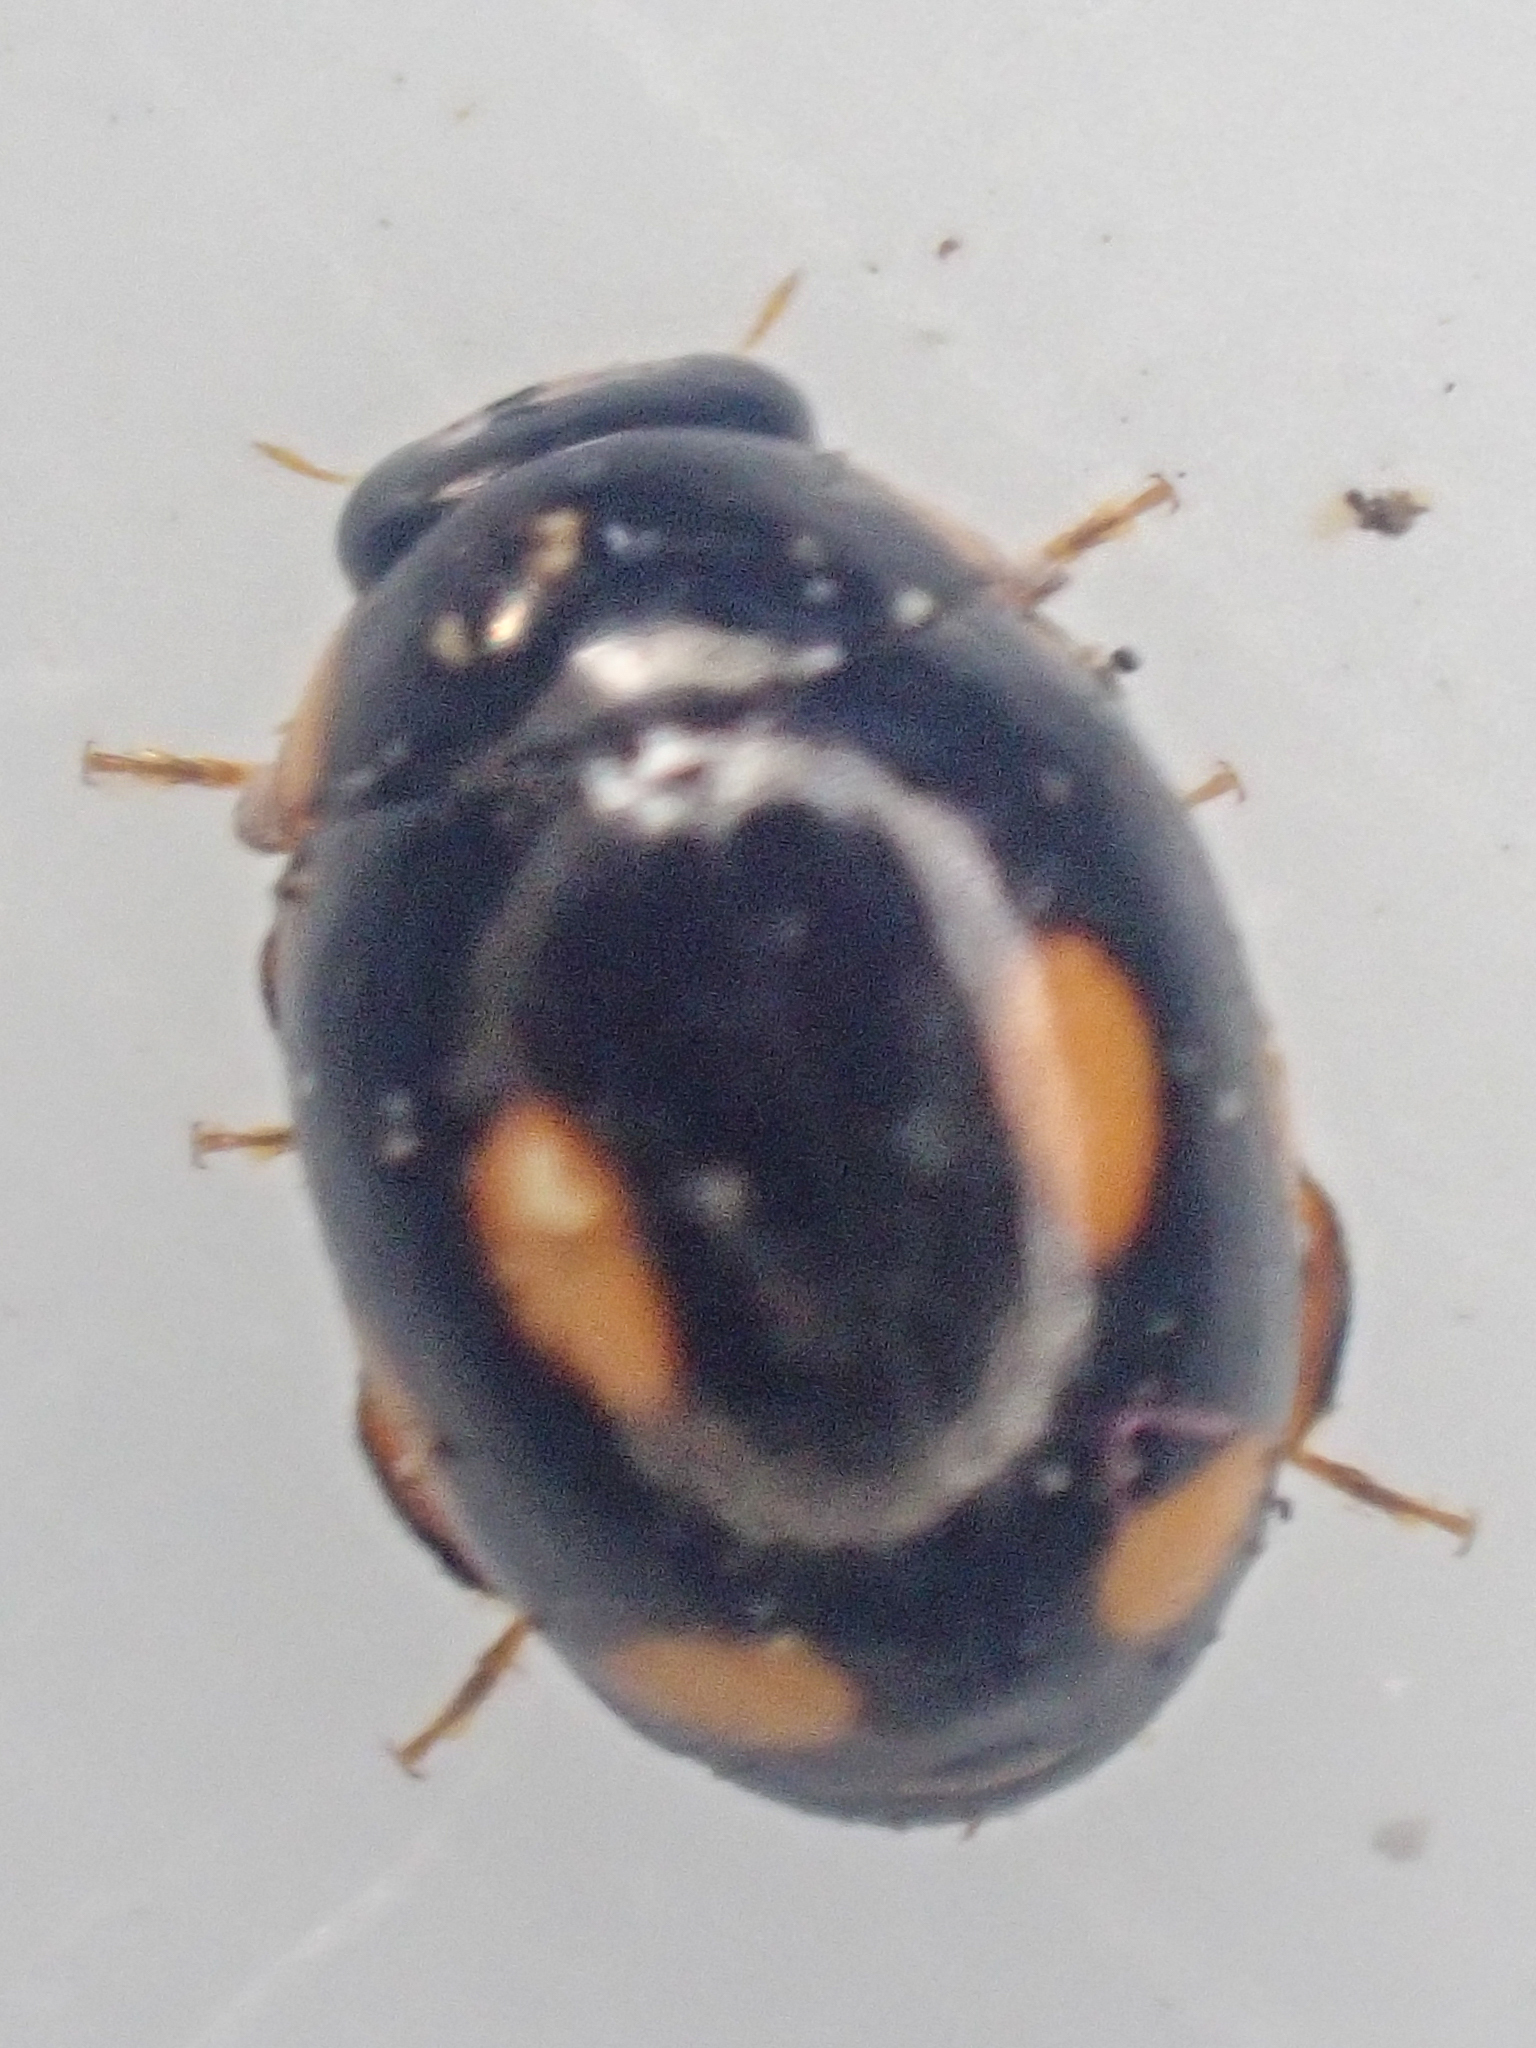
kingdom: Animalia
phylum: Arthropoda
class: Insecta
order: Coleoptera
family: Coccinellidae
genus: Hyperaspis
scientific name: Hyperaspis quadrioculata
